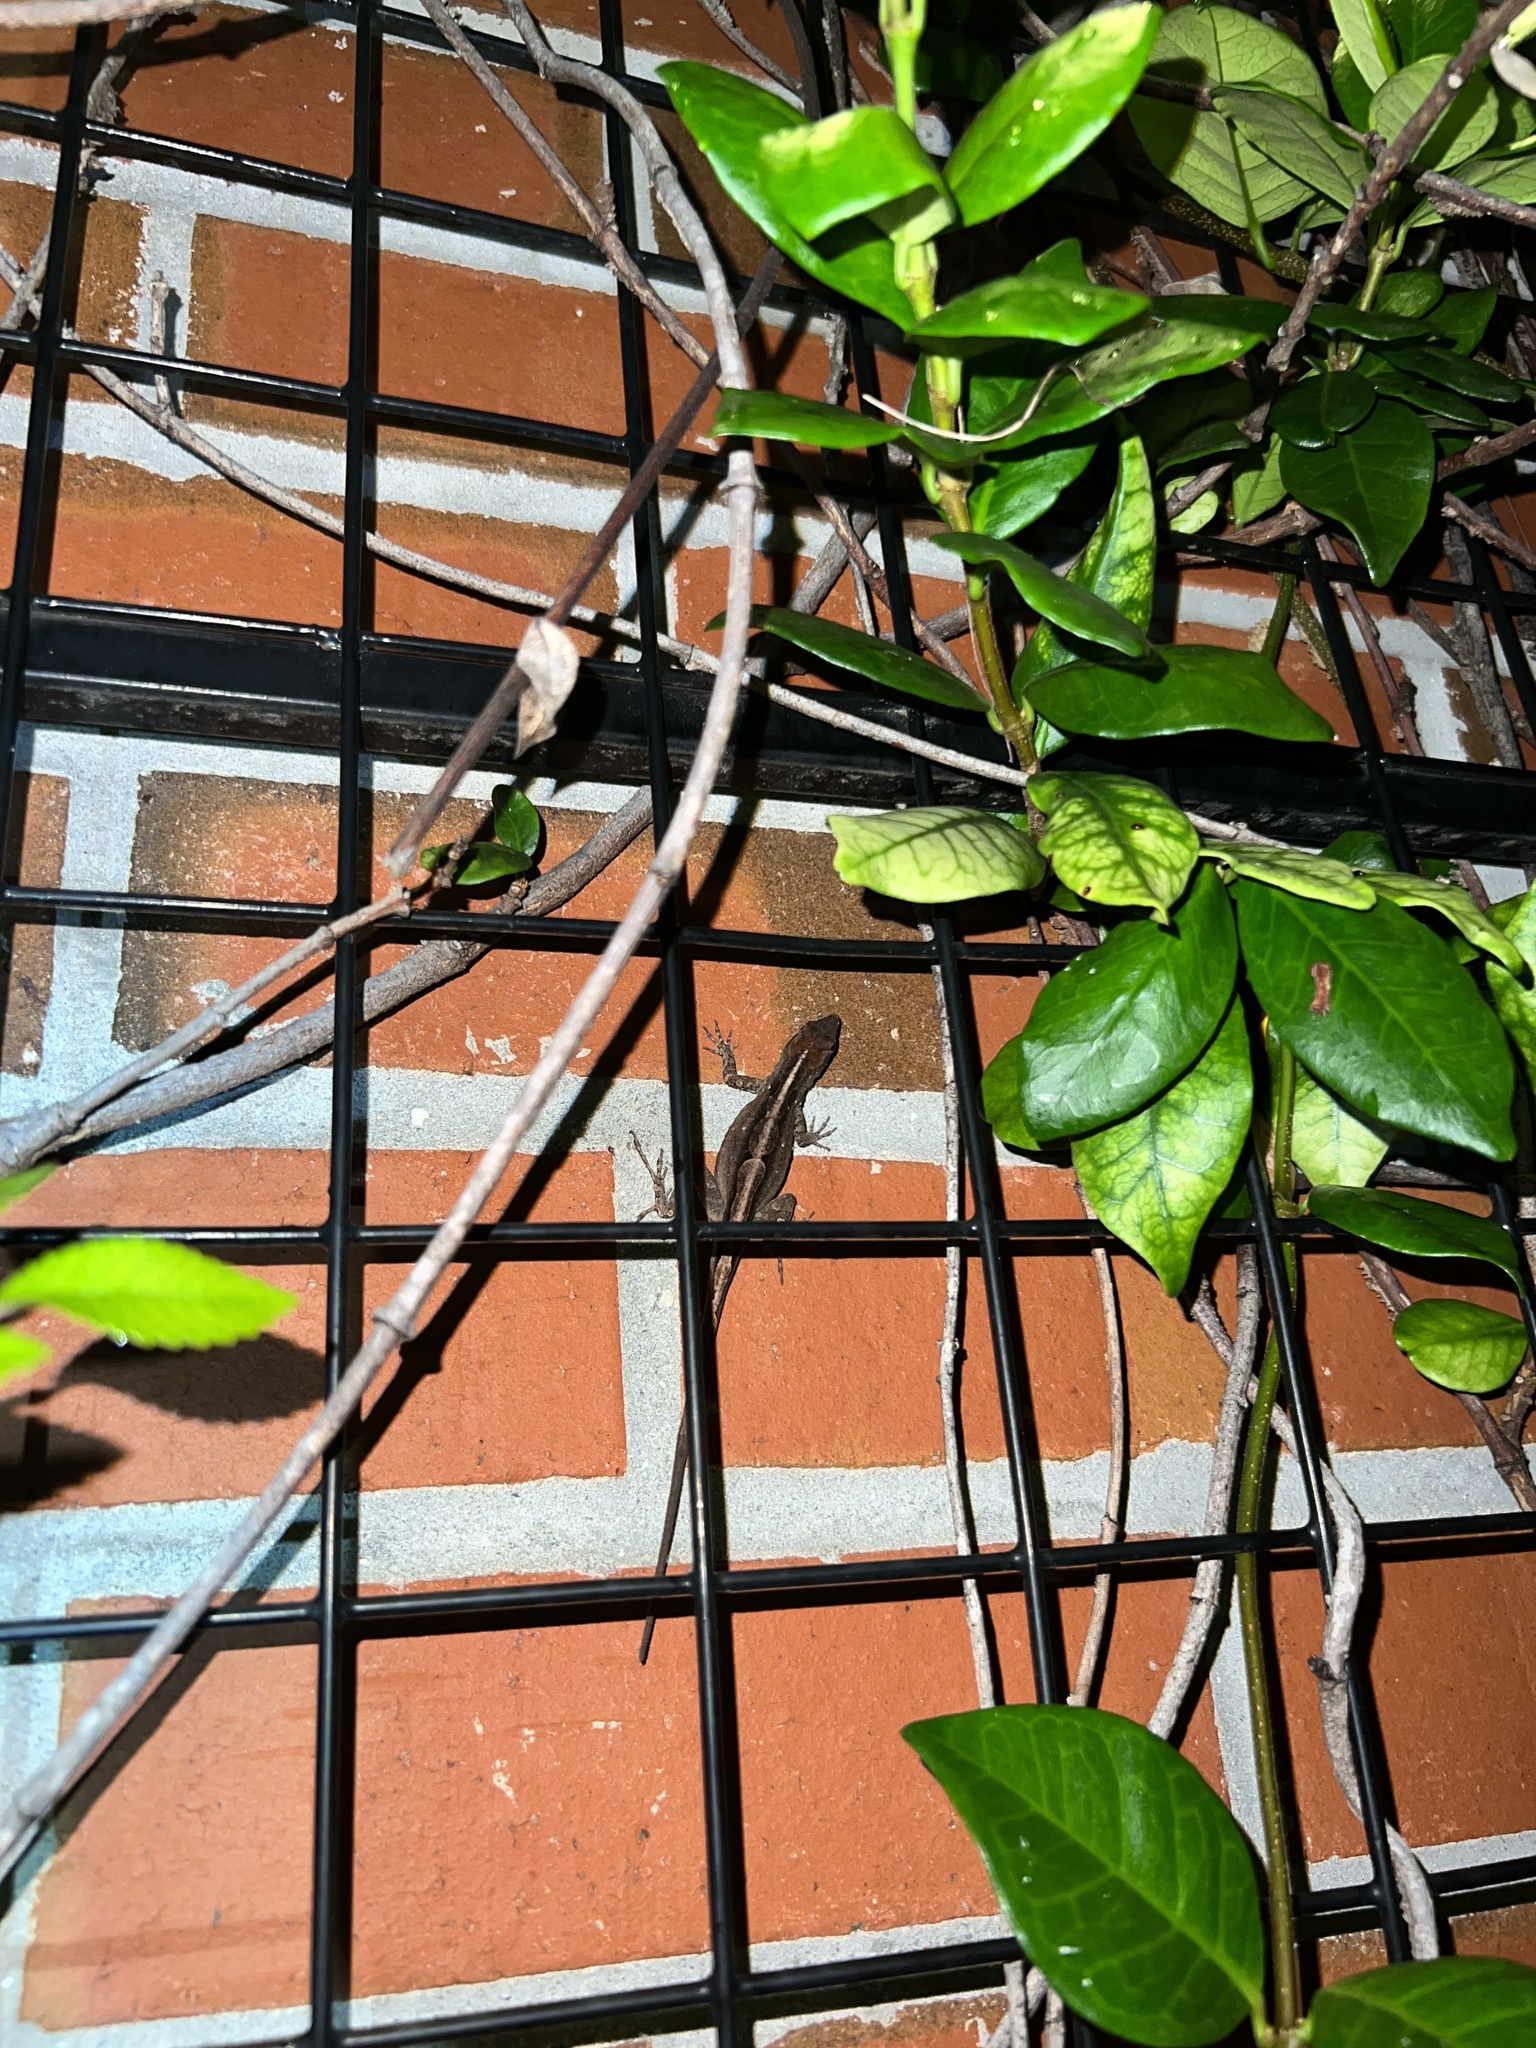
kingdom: Animalia
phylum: Chordata
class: Squamata
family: Dactyloidae
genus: Anolis
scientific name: Anolis sagrei
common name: Brown anole
